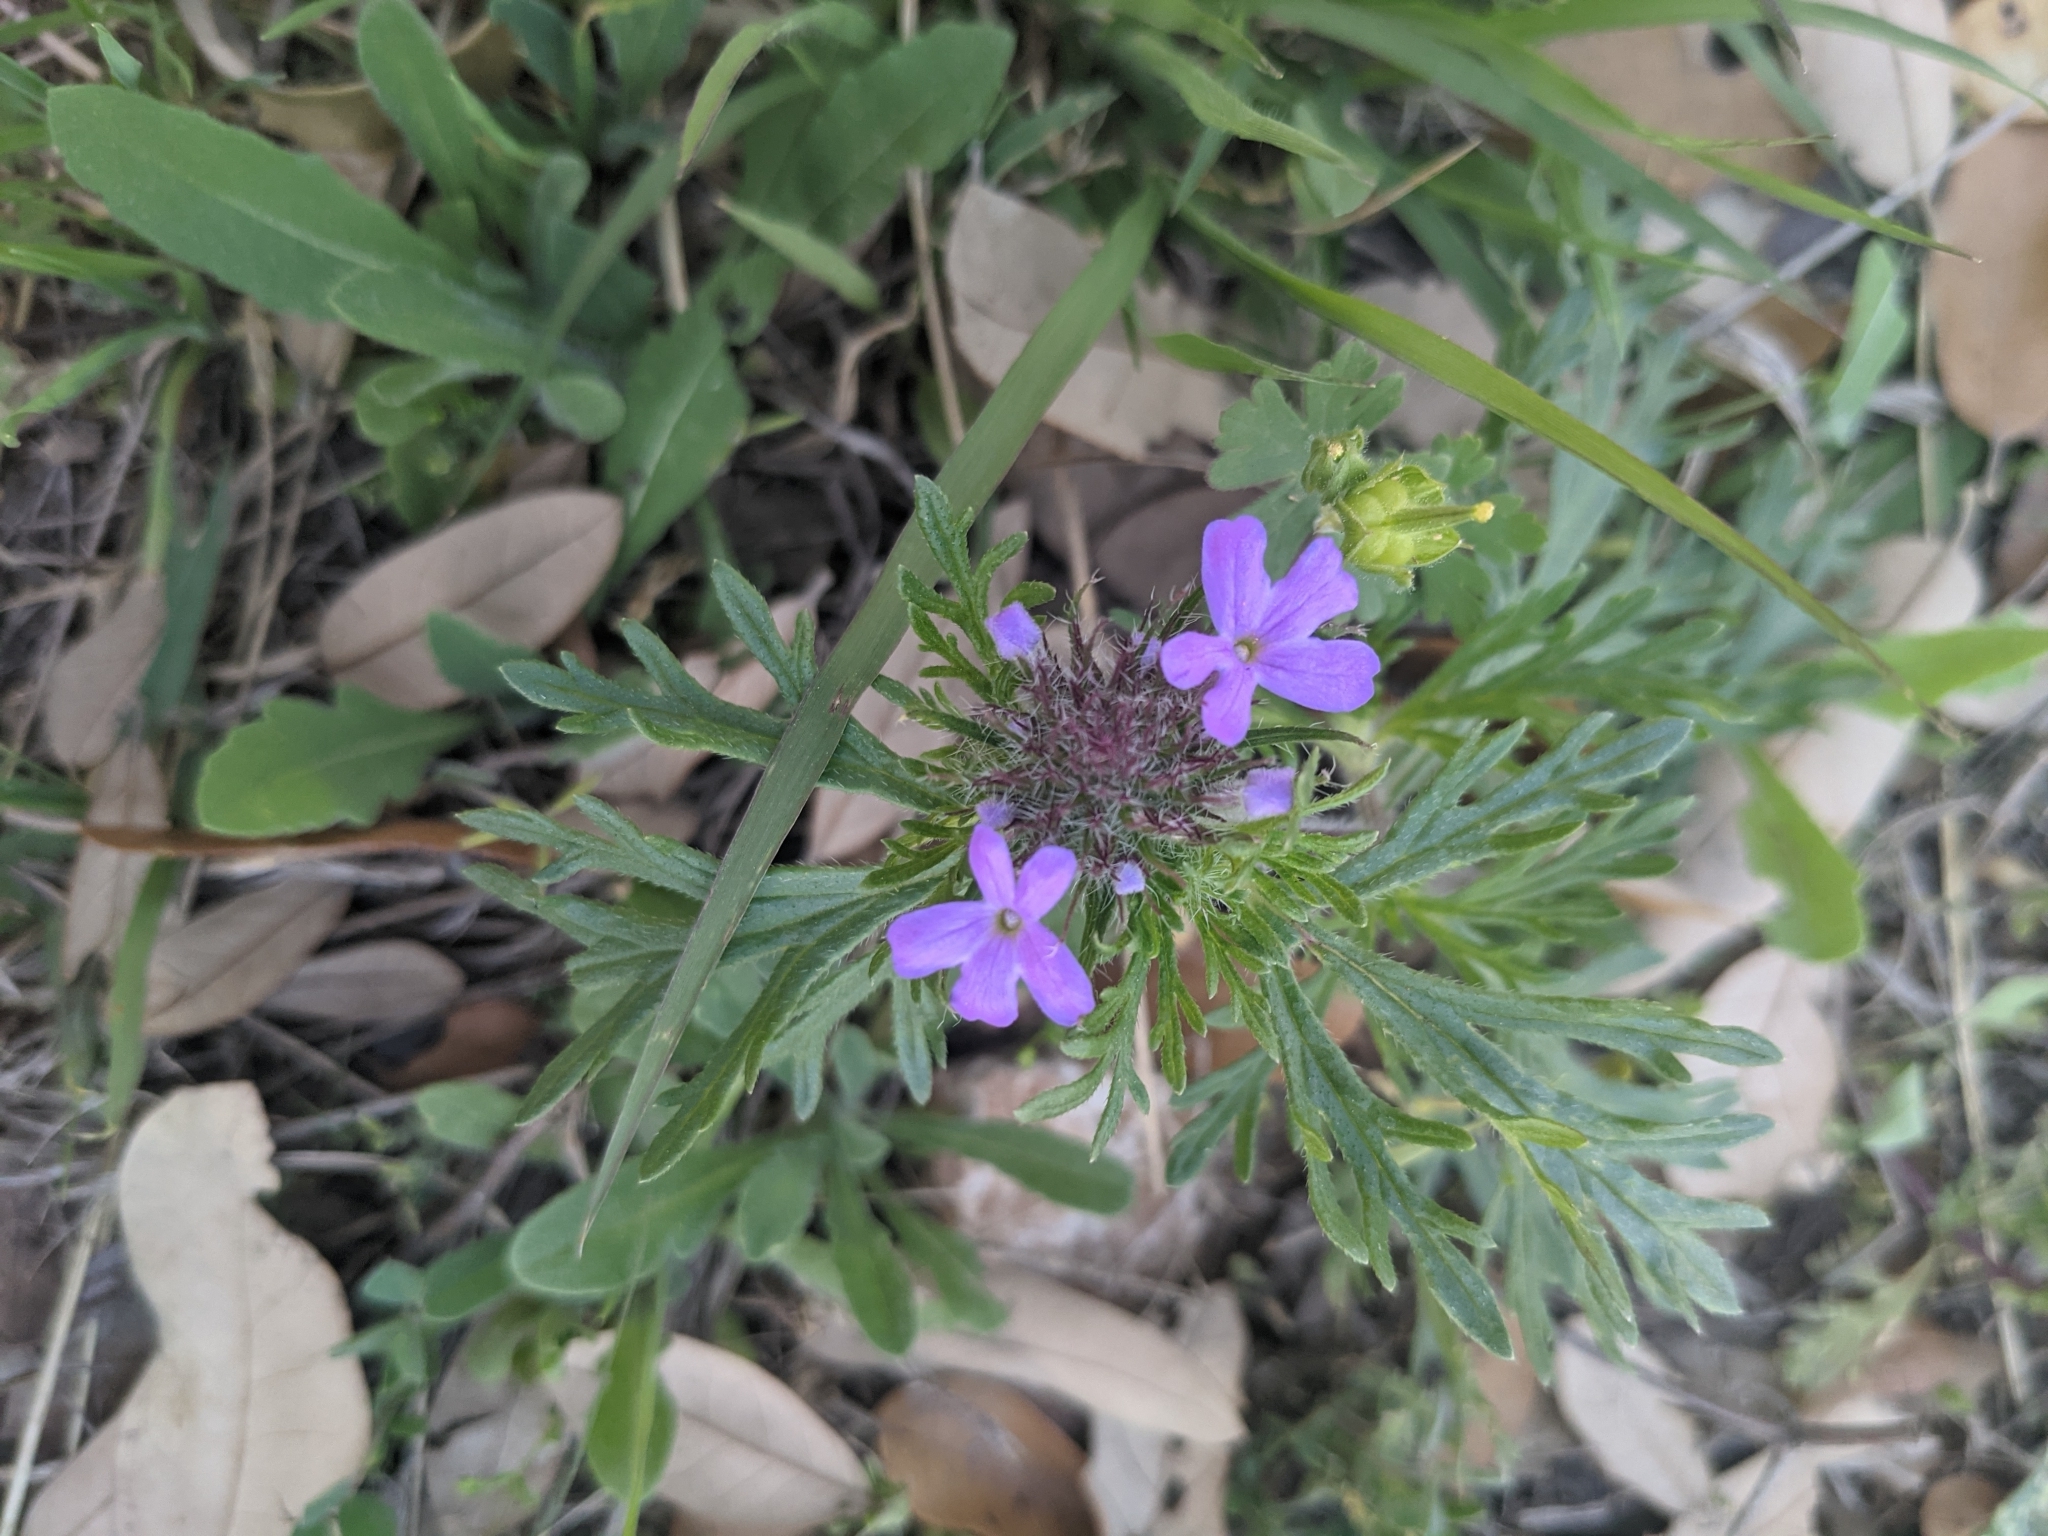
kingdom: Plantae
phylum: Tracheophyta
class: Magnoliopsida
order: Lamiales
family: Verbenaceae
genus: Verbena
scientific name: Verbena bipinnatifida
